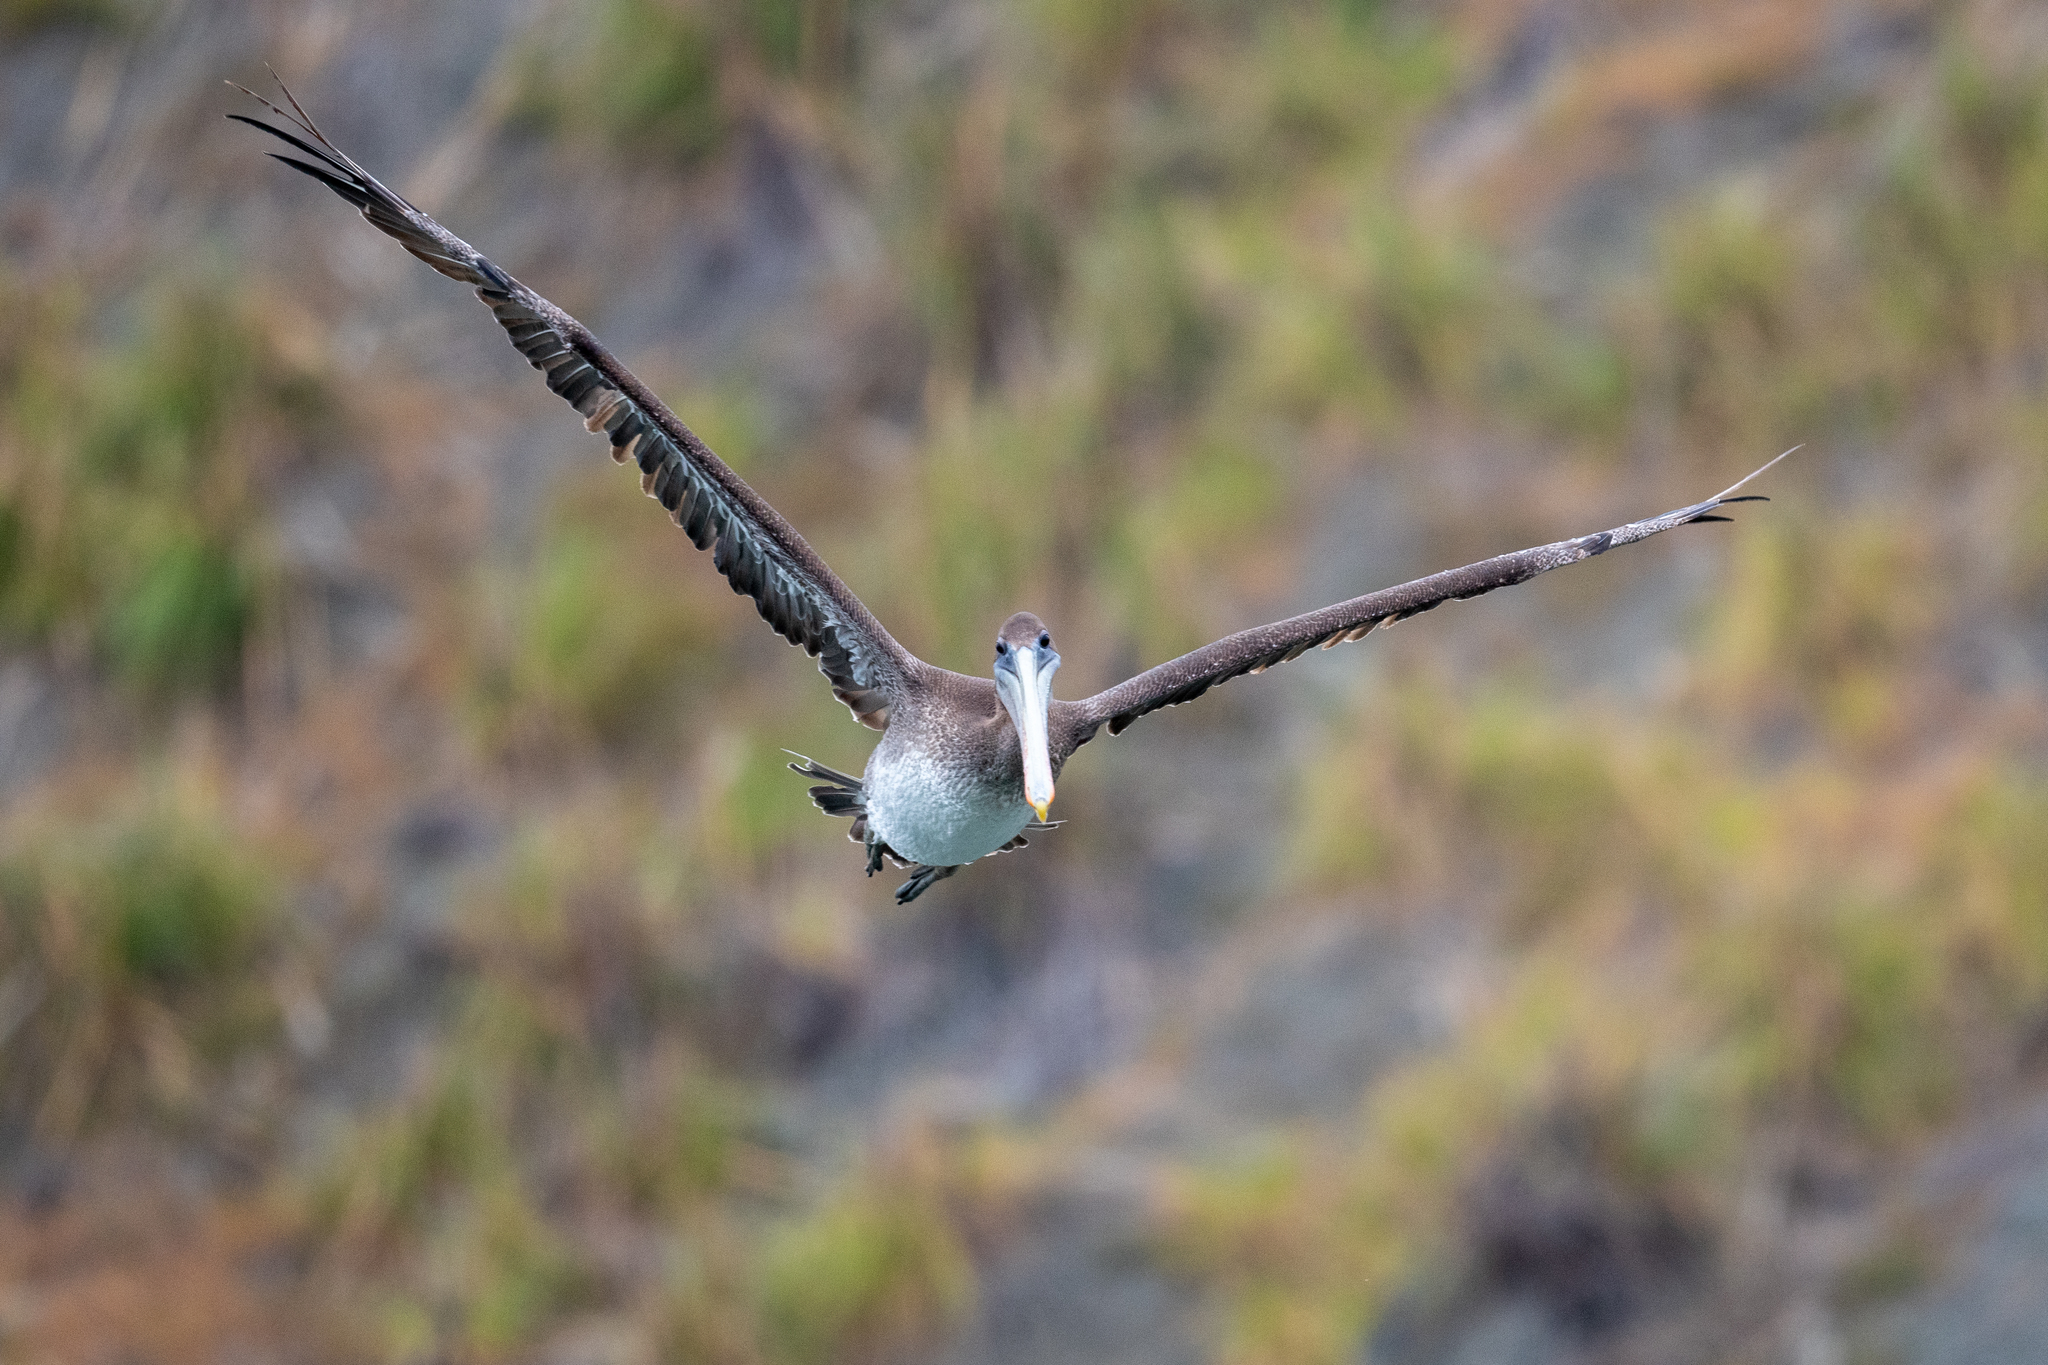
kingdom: Animalia
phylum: Chordata
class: Aves
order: Pelecaniformes
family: Pelecanidae
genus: Pelecanus
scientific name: Pelecanus occidentalis
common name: Brown pelican
